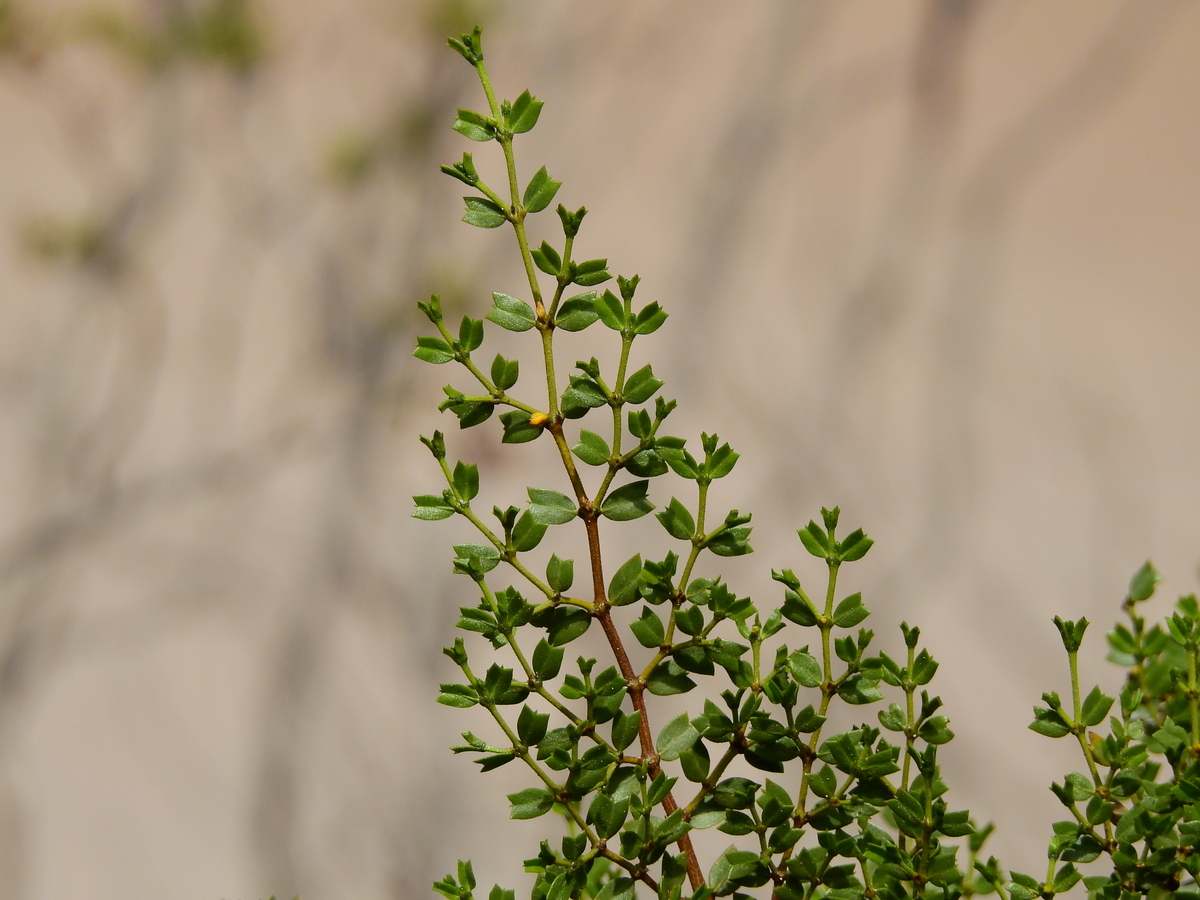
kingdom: Plantae
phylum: Tracheophyta
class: Magnoliopsida
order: Zygophyllales
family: Zygophyllaceae
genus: Larrea
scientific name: Larrea cuneifolia
